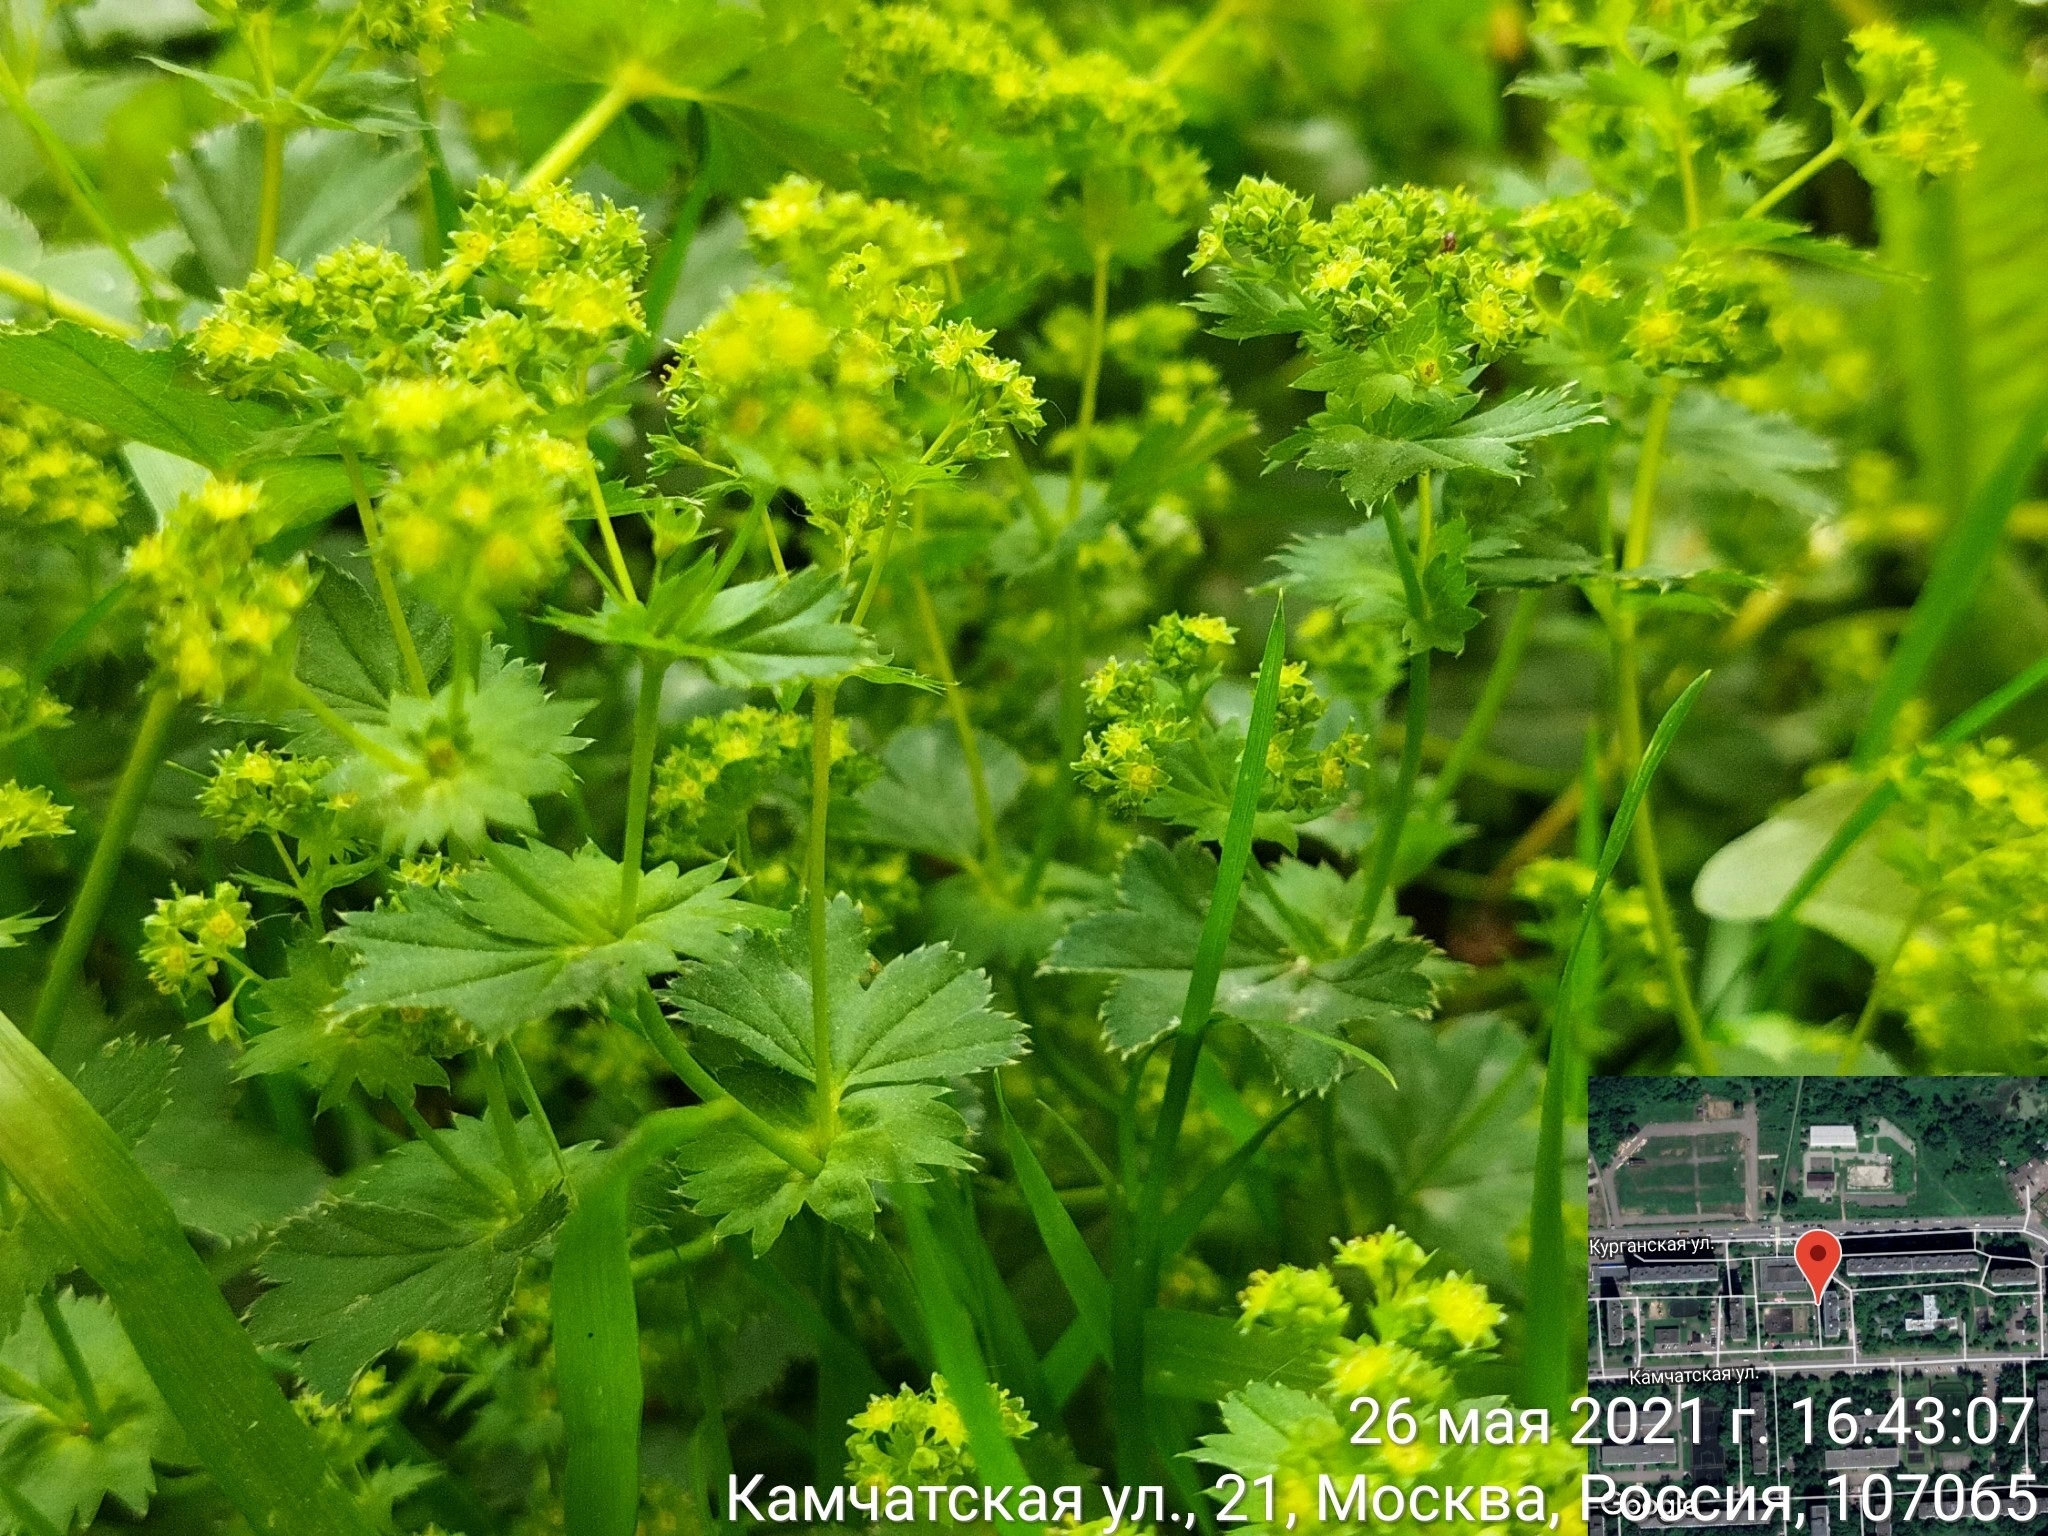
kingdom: Plantae
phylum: Tracheophyta
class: Magnoliopsida
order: Rosales
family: Rosaceae
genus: Alchemilla
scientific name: Alchemilla baltica
